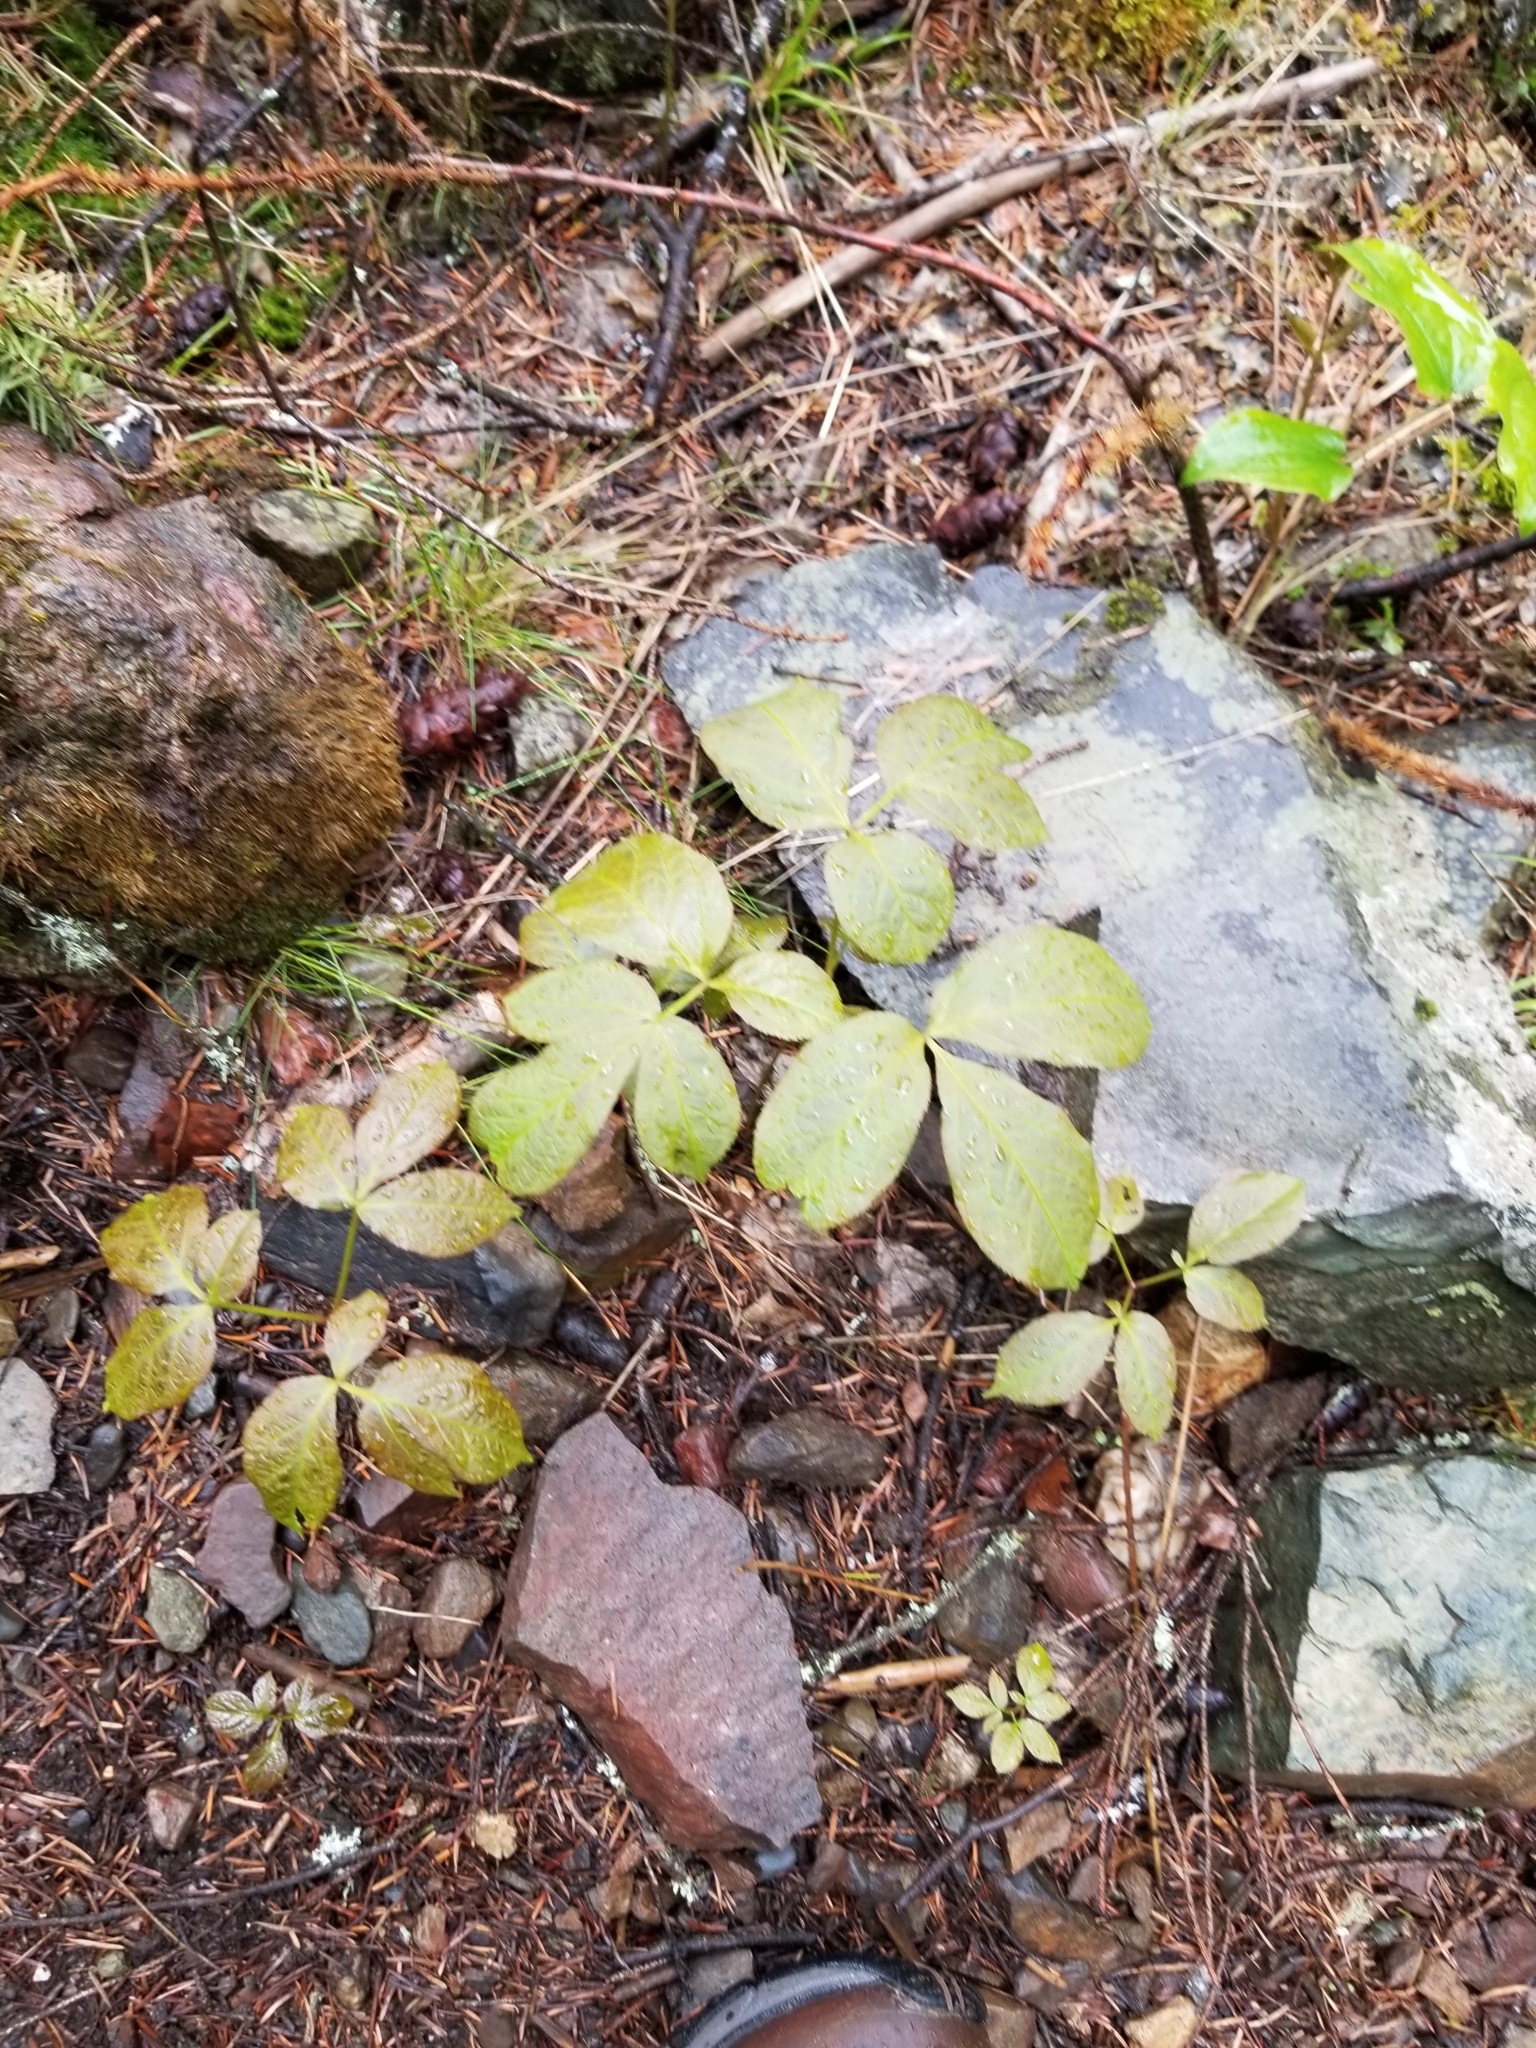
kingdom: Plantae
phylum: Tracheophyta
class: Magnoliopsida
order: Apiales
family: Araliaceae
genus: Aralia
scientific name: Aralia nudicaulis
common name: Wild sarsaparilla
